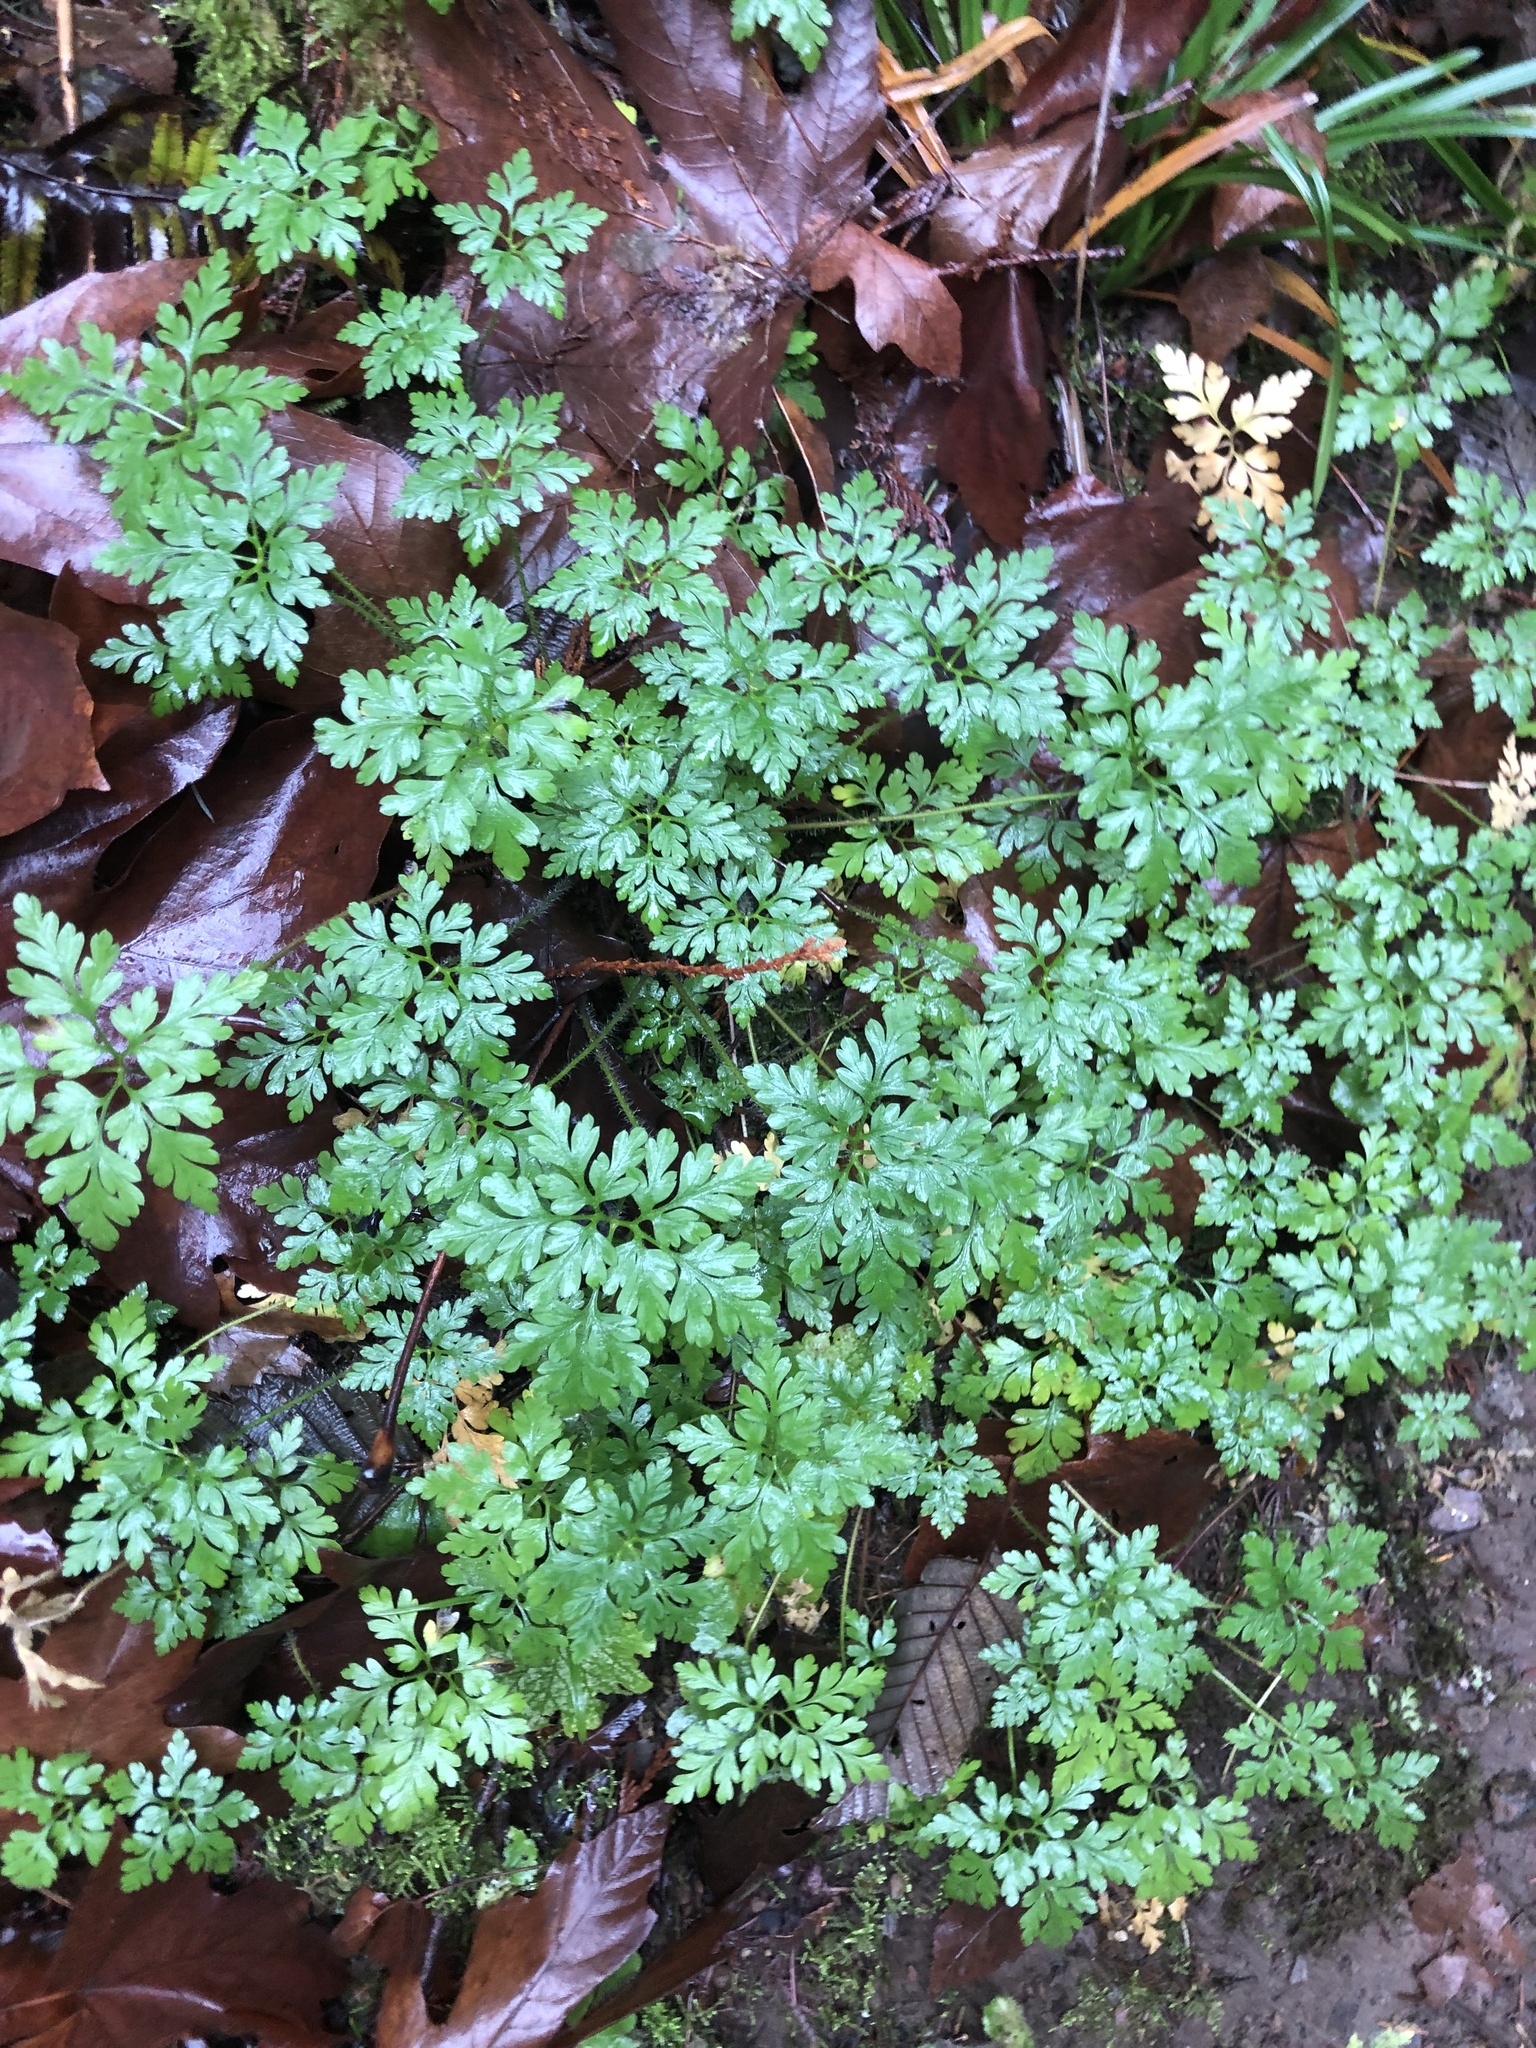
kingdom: Plantae
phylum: Tracheophyta
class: Magnoliopsida
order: Geraniales
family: Geraniaceae
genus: Geranium
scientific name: Geranium robertianum
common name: Herb-robert
